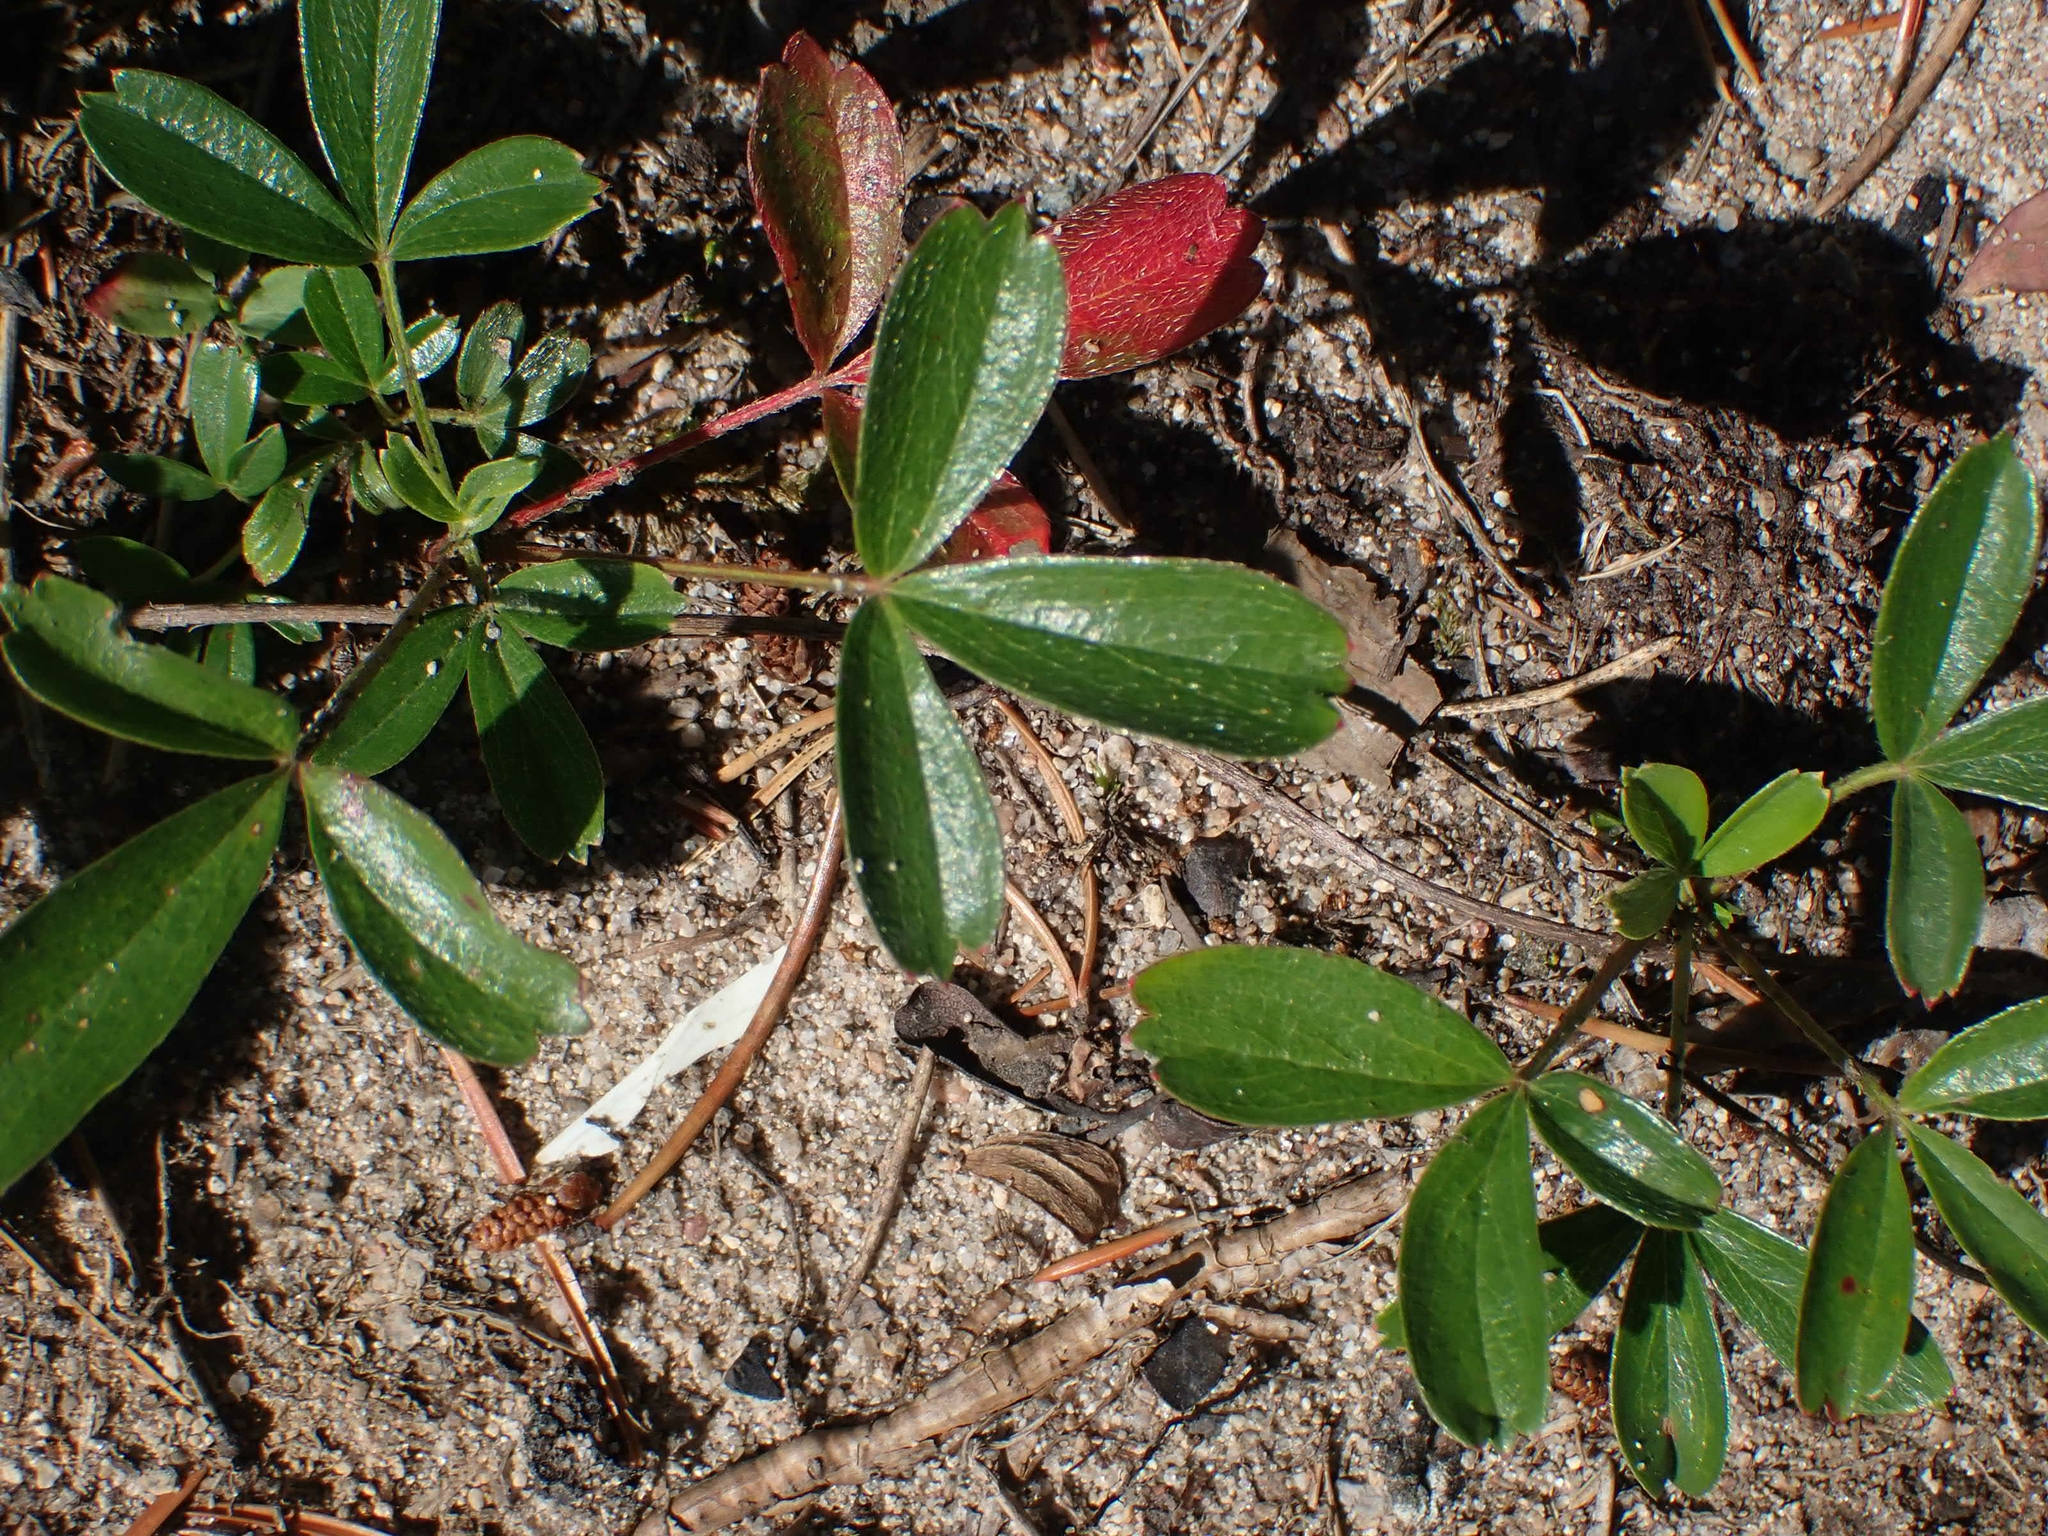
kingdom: Plantae
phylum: Tracheophyta
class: Magnoliopsida
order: Rosales
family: Rosaceae
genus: Sibbaldia
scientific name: Sibbaldia tridentata
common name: Three-toothed cinquefoil
